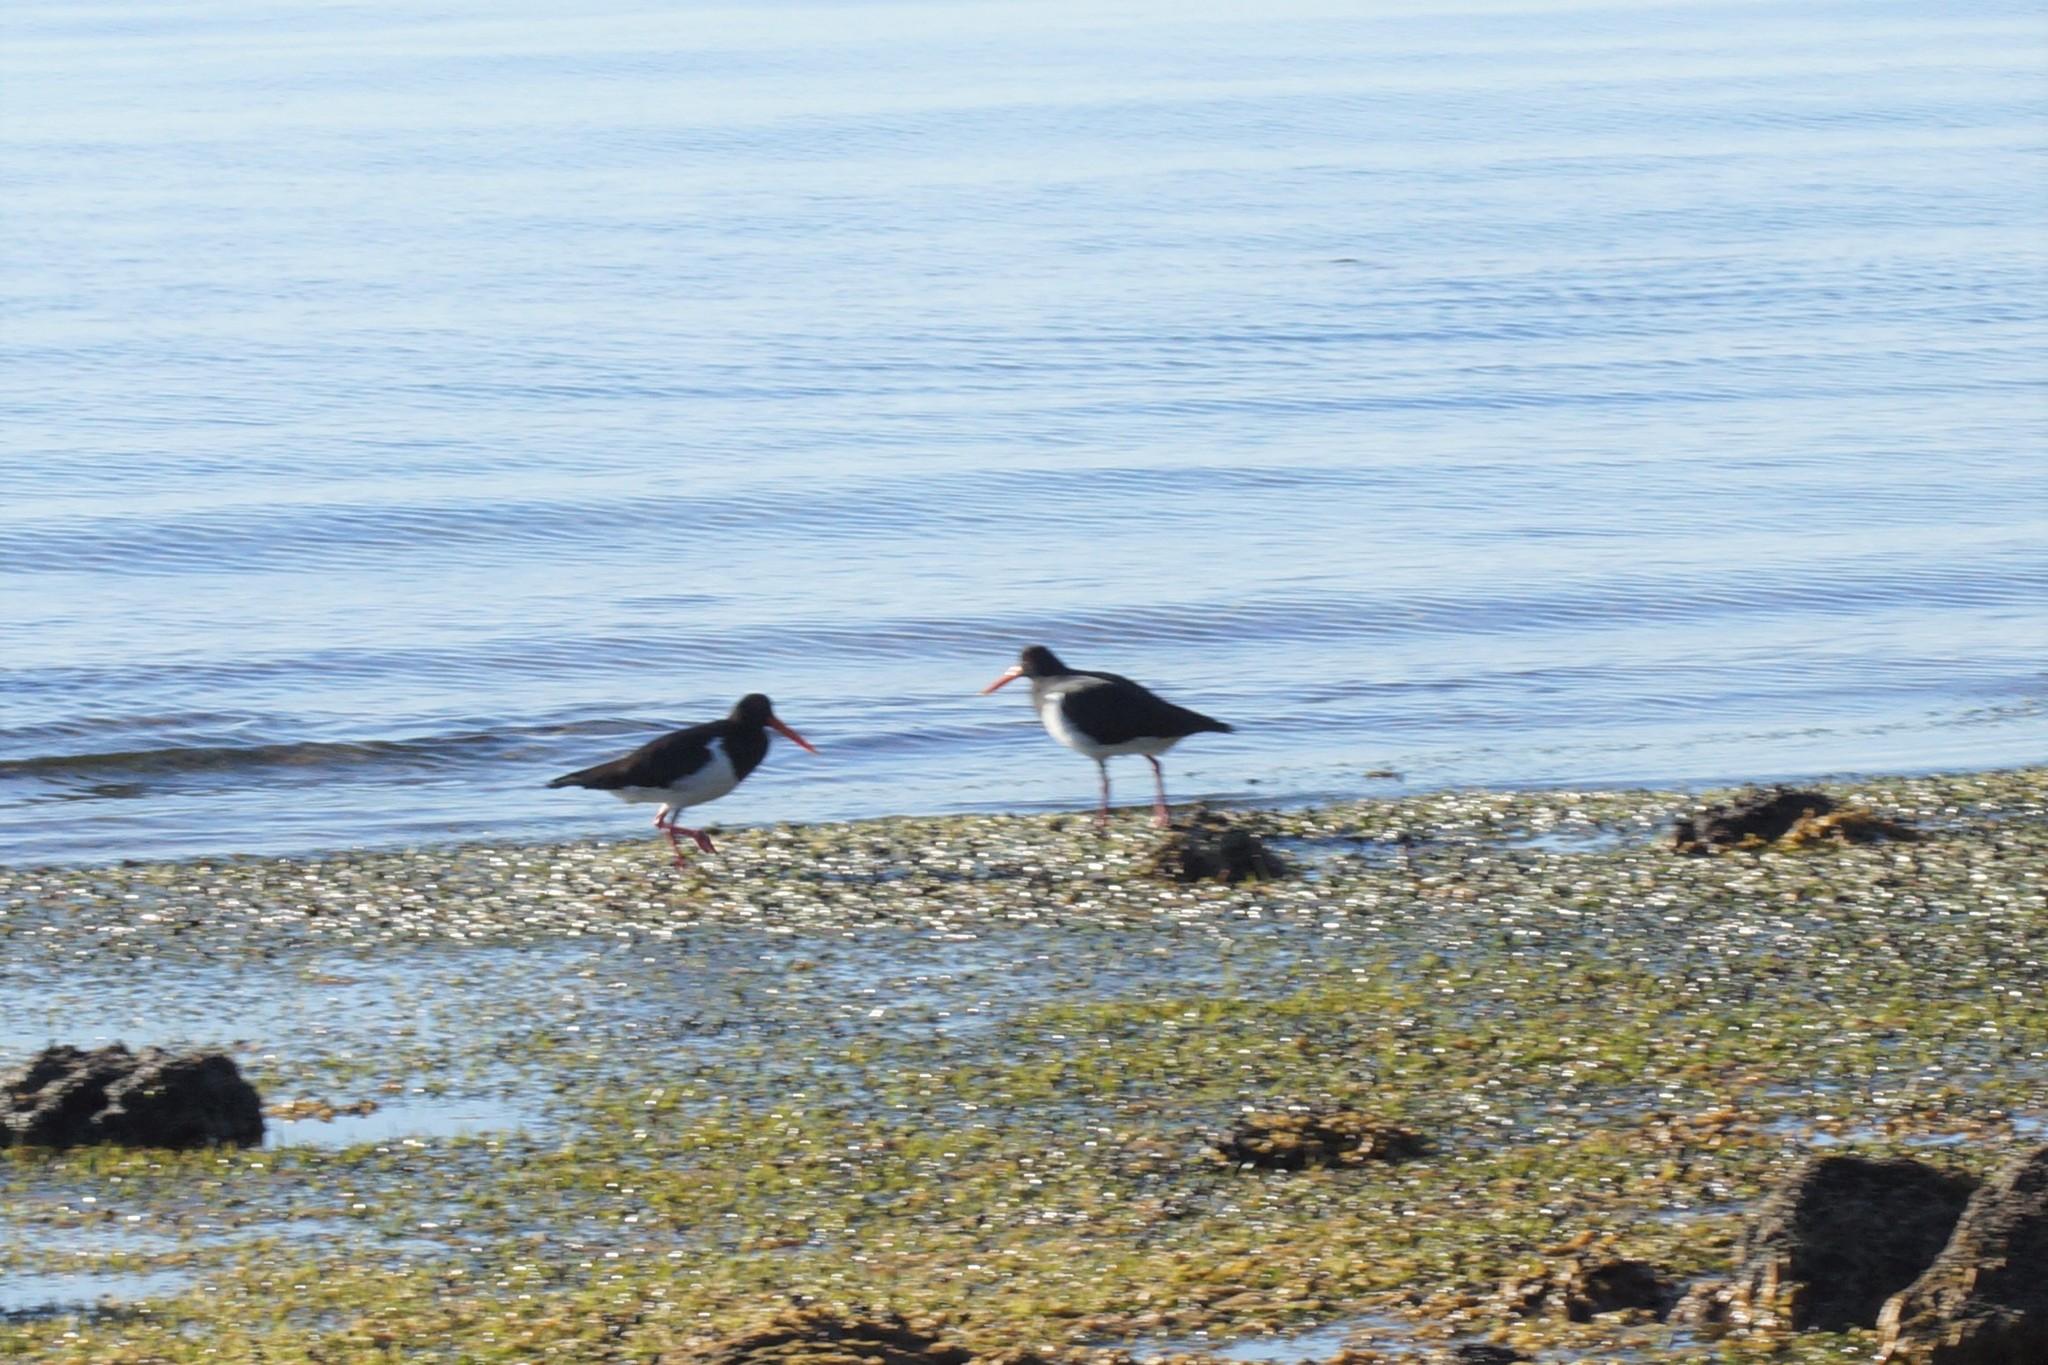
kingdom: Animalia
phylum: Chordata
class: Aves
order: Charadriiformes
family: Haematopodidae
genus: Haematopus
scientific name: Haematopus longirostris
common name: Pied oystercatcher
